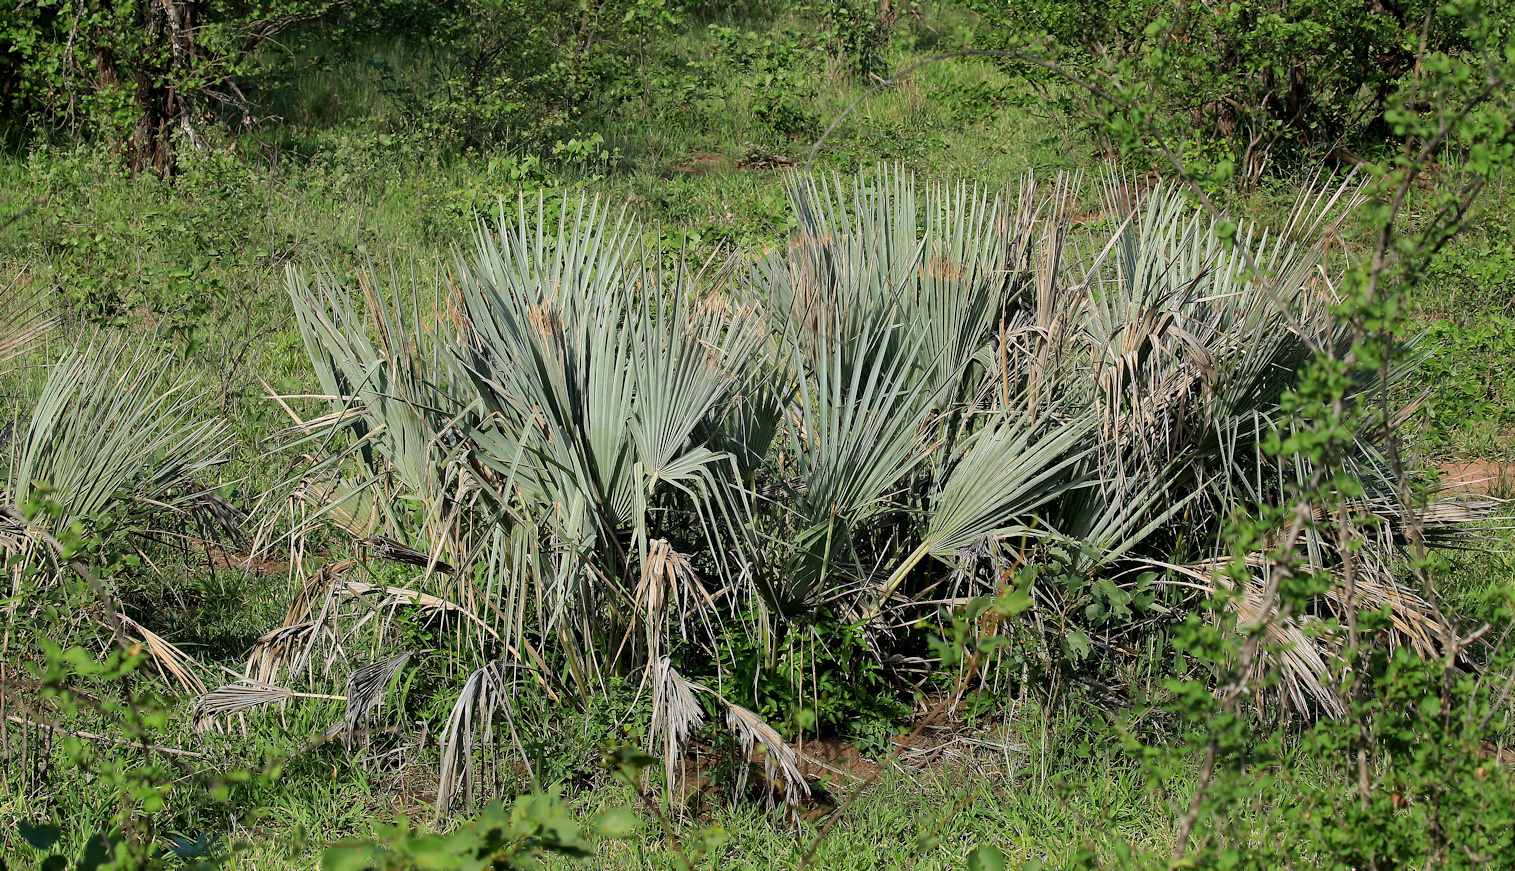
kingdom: Plantae
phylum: Tracheophyta
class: Liliopsida
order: Arecales
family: Arecaceae
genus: Hyphaene
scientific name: Hyphaene petersiana
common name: African ivory nut palm
